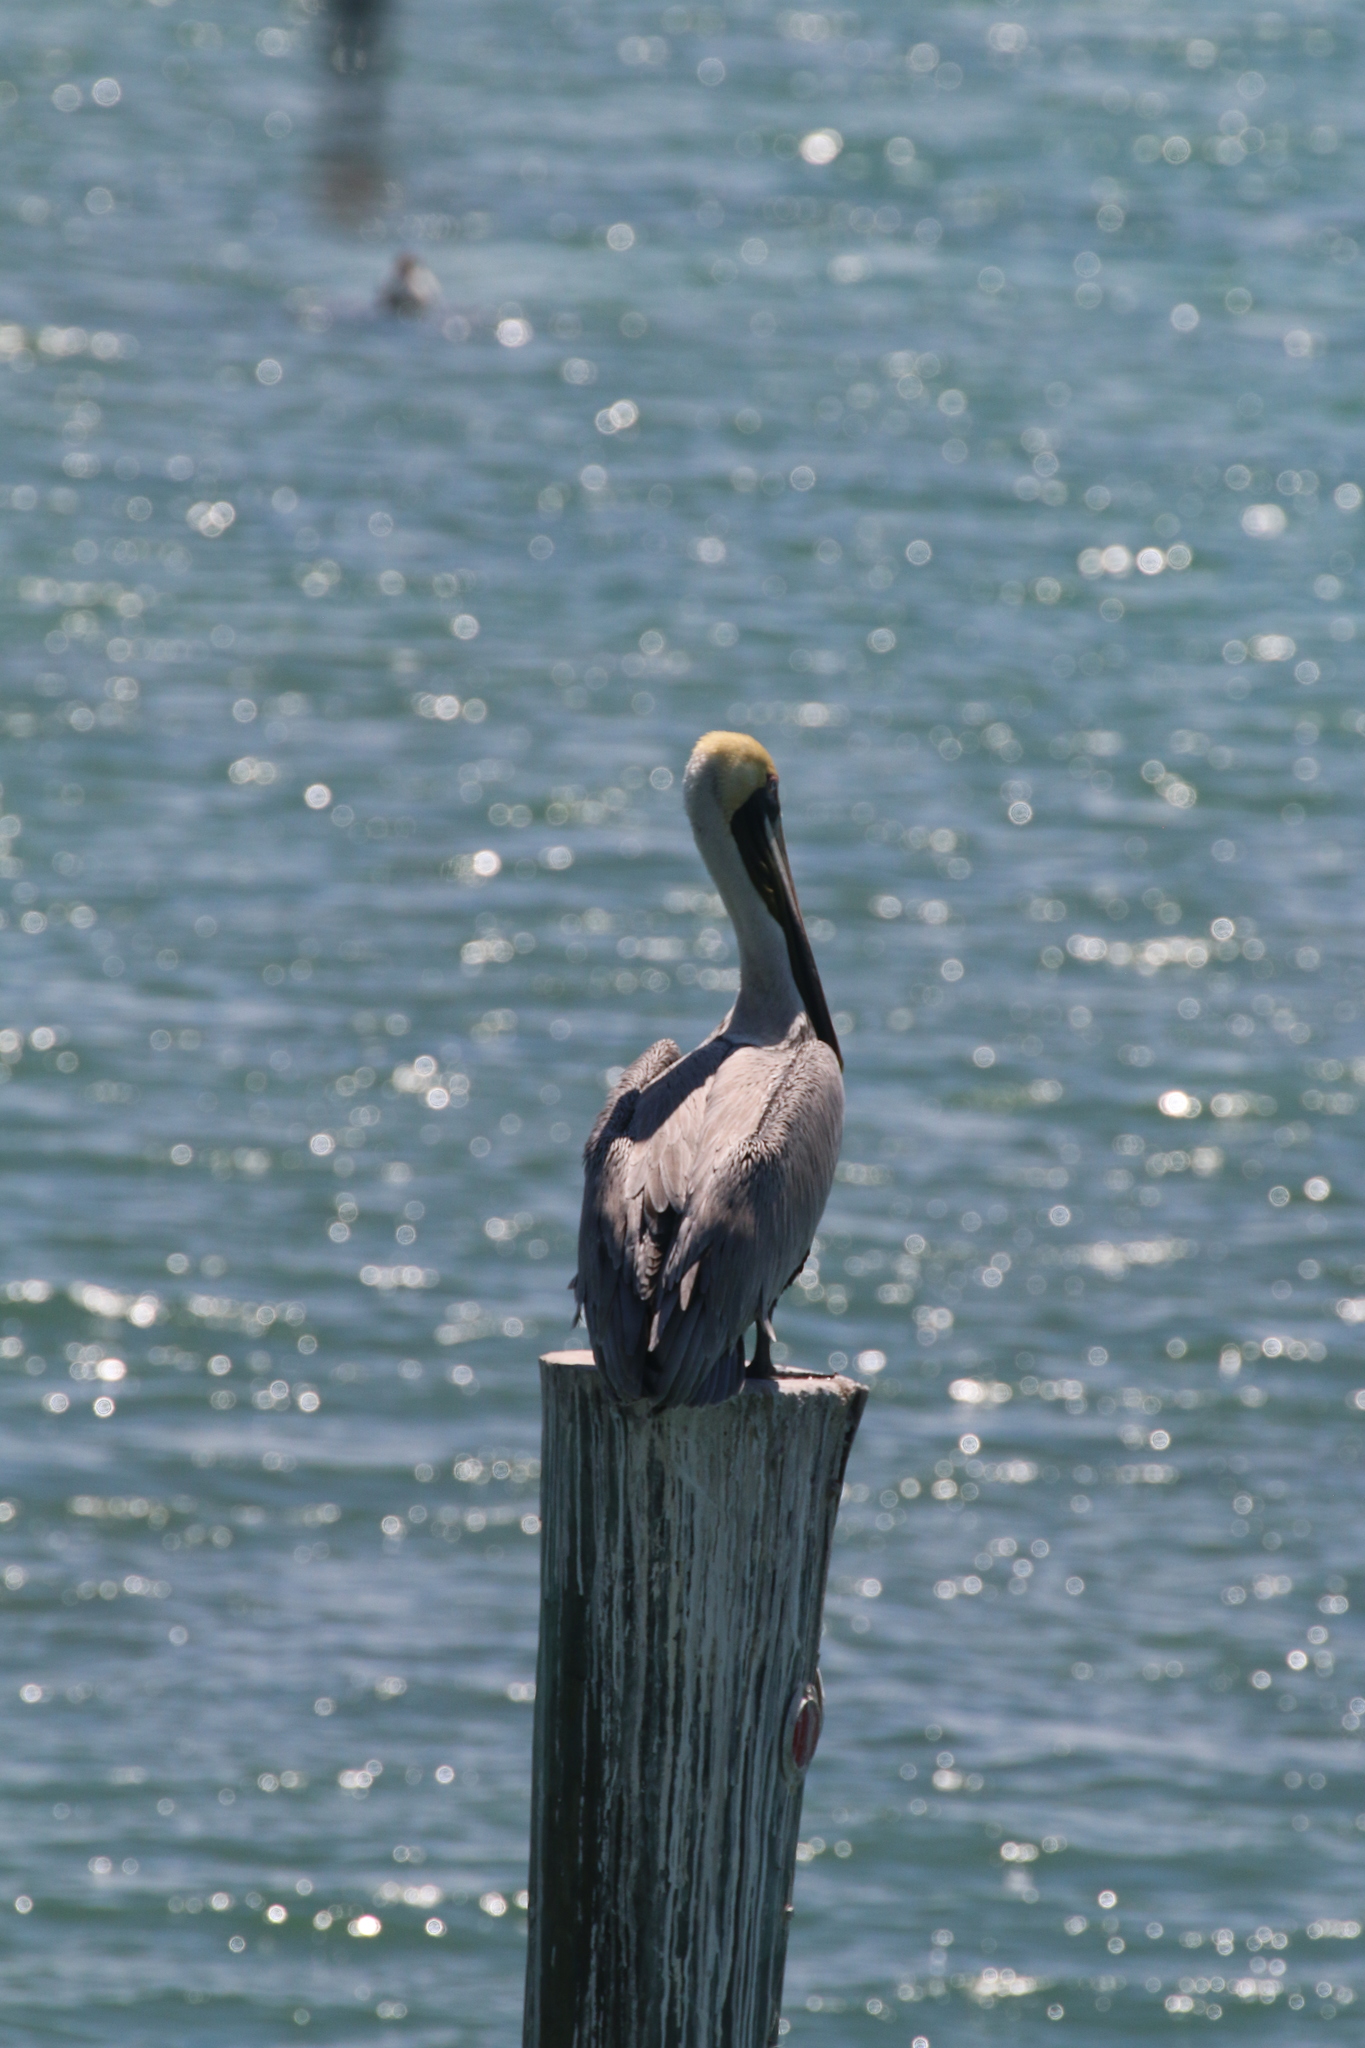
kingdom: Animalia
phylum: Chordata
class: Aves
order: Pelecaniformes
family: Pelecanidae
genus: Pelecanus
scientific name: Pelecanus occidentalis
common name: Brown pelican
